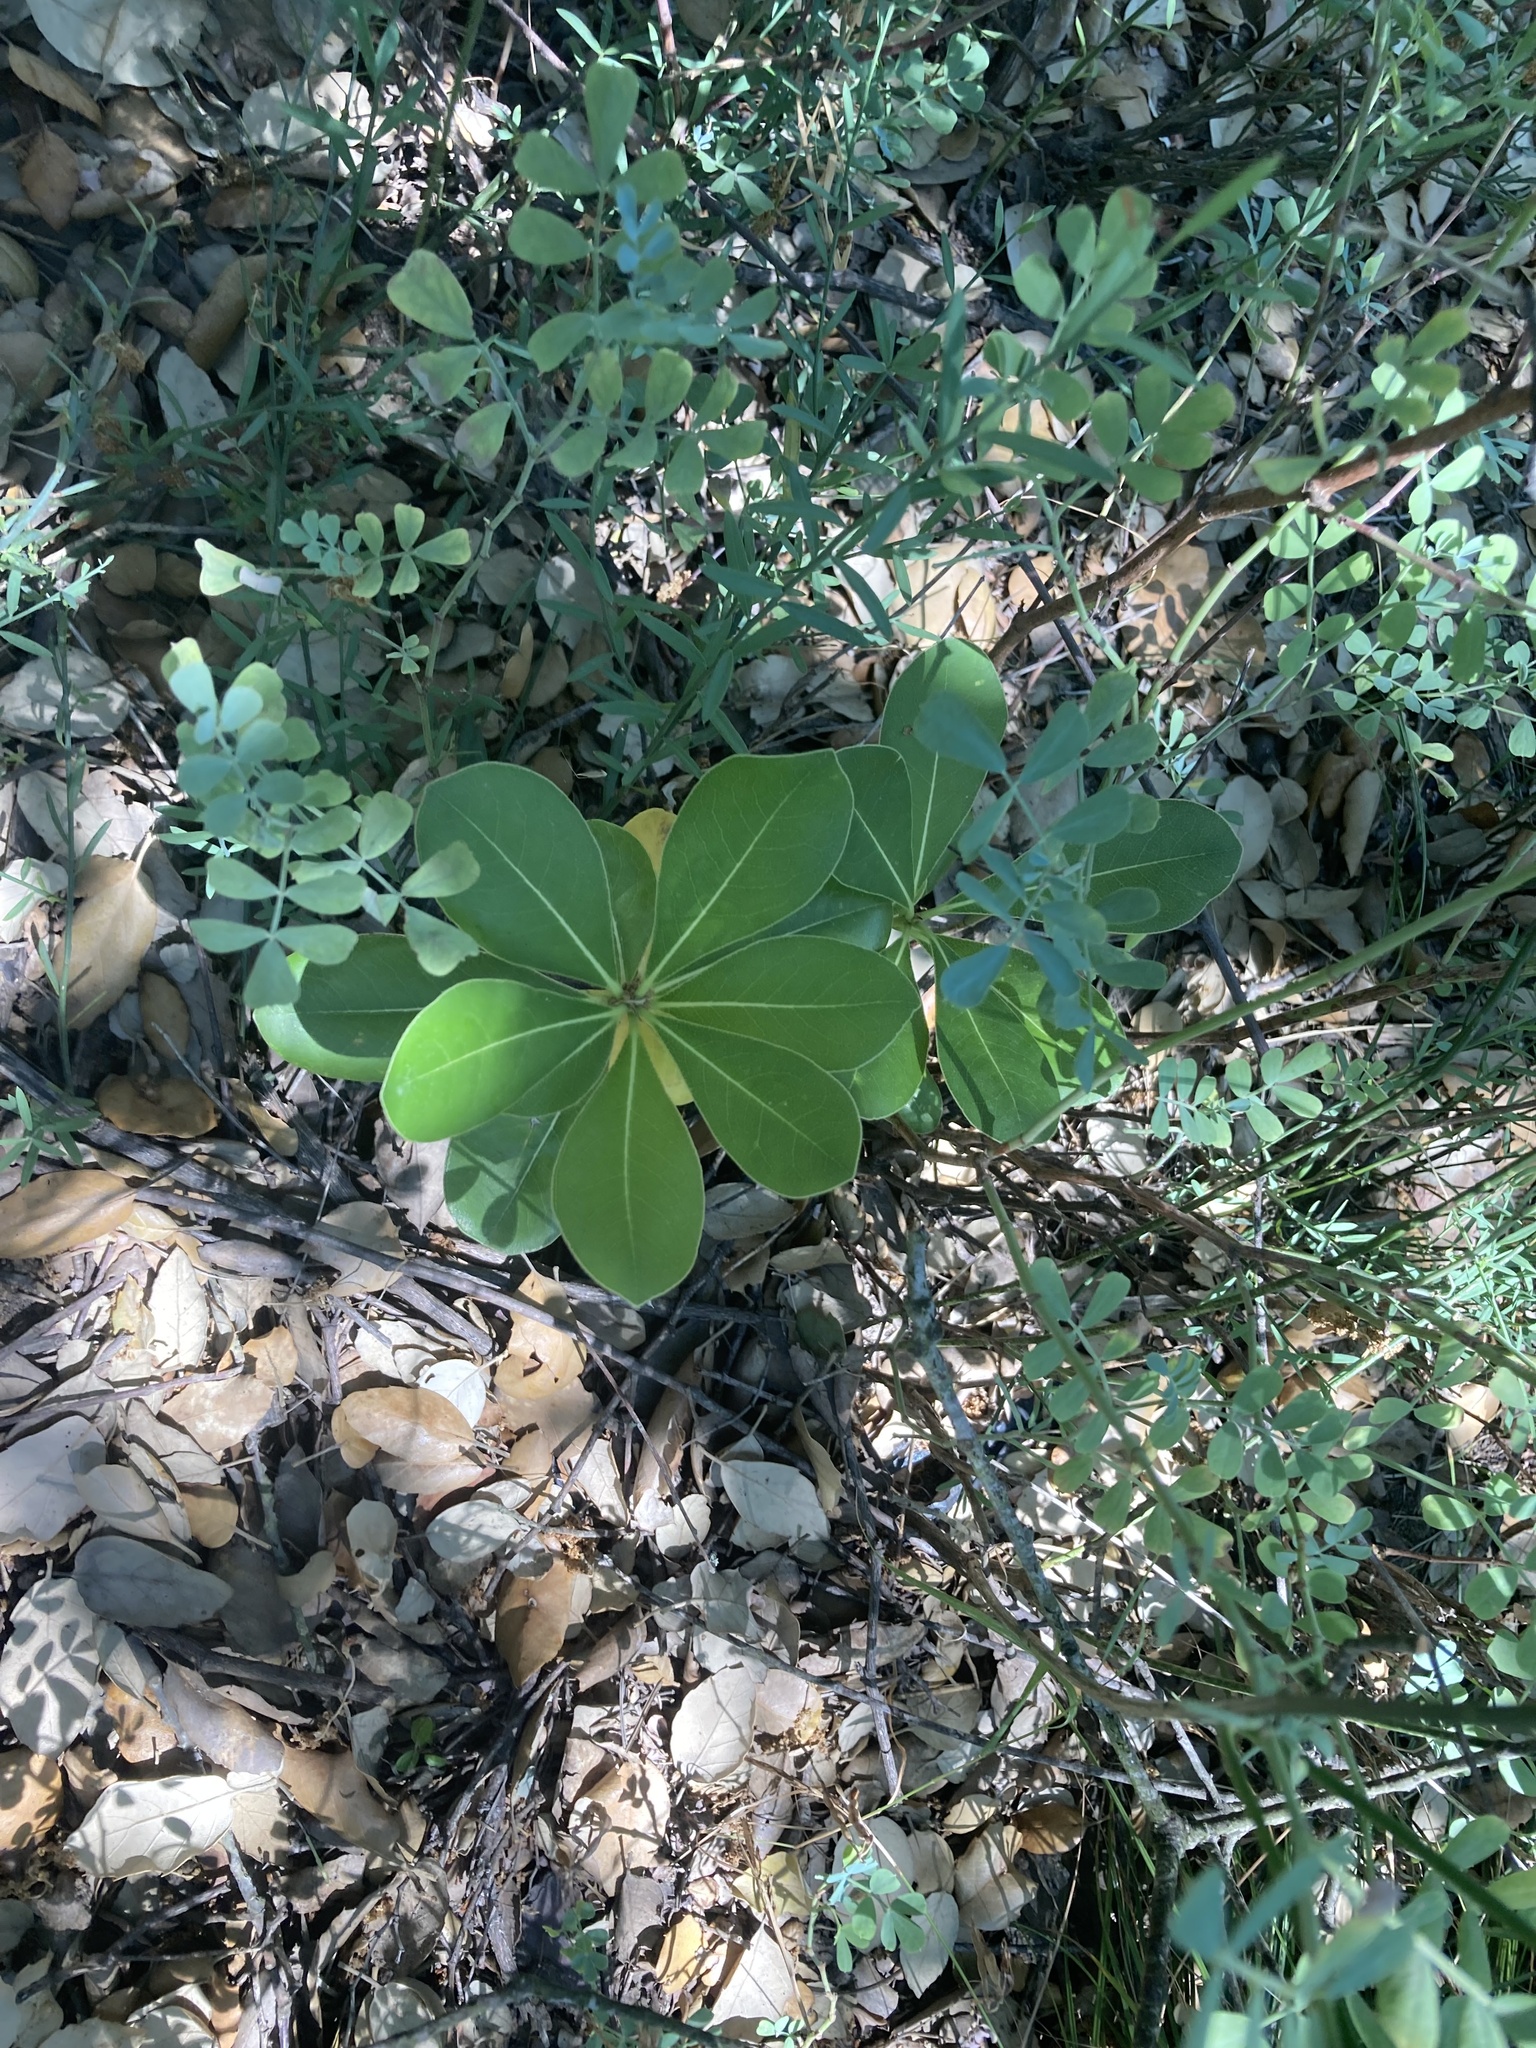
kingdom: Plantae
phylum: Tracheophyta
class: Magnoliopsida
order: Apiales
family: Pittosporaceae
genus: Pittosporum
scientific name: Pittosporum tobira
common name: Japanese cheesewood
